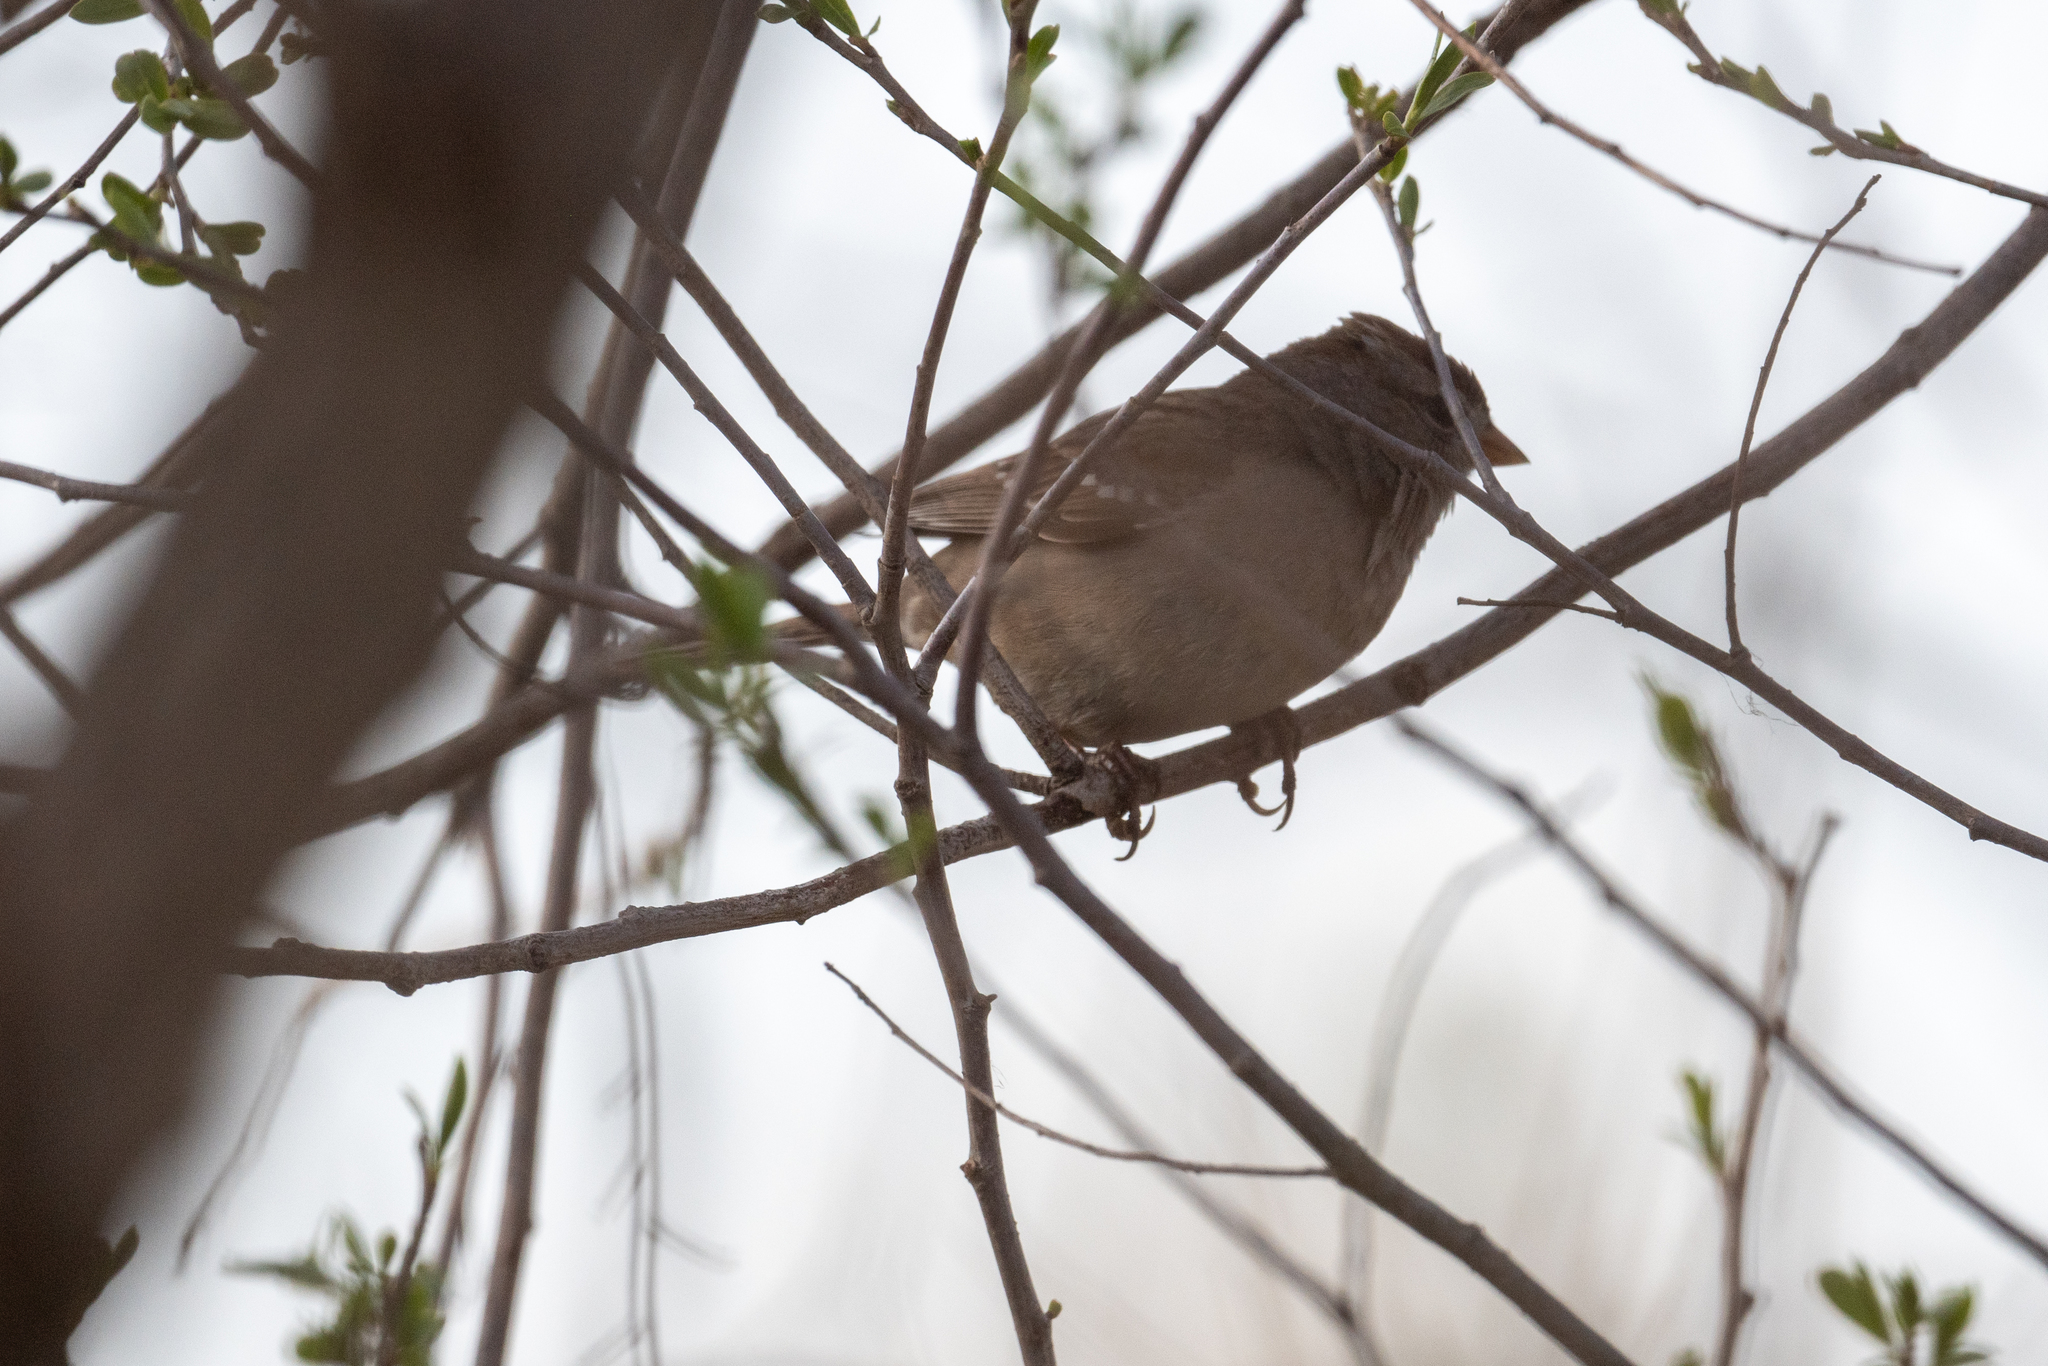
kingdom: Animalia
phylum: Chordata
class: Aves
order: Passeriformes
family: Passerellidae
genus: Zonotrichia
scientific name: Zonotrichia leucophrys
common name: White-crowned sparrow
